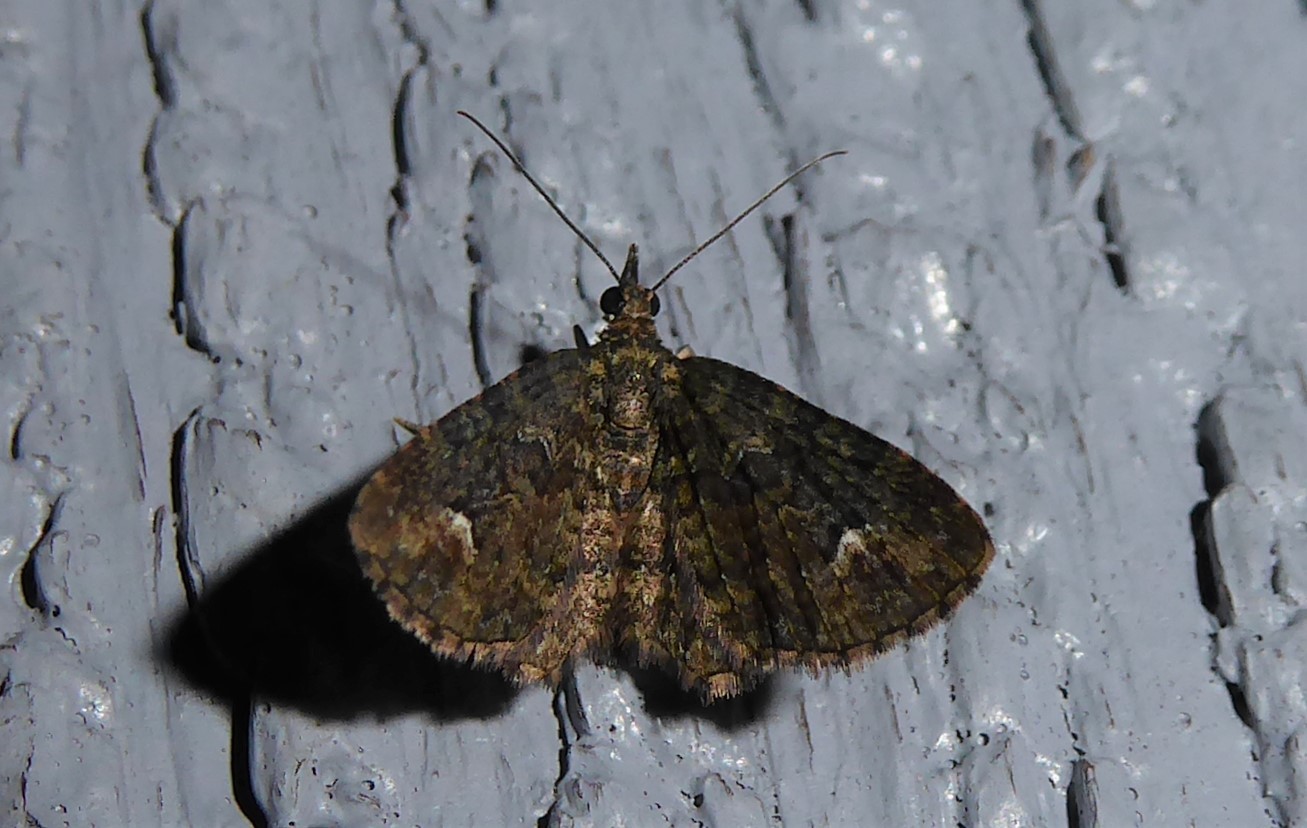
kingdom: Animalia
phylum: Arthropoda
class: Insecta
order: Lepidoptera
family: Geometridae
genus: Pasiphilodes
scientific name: Pasiphilodes testulata
